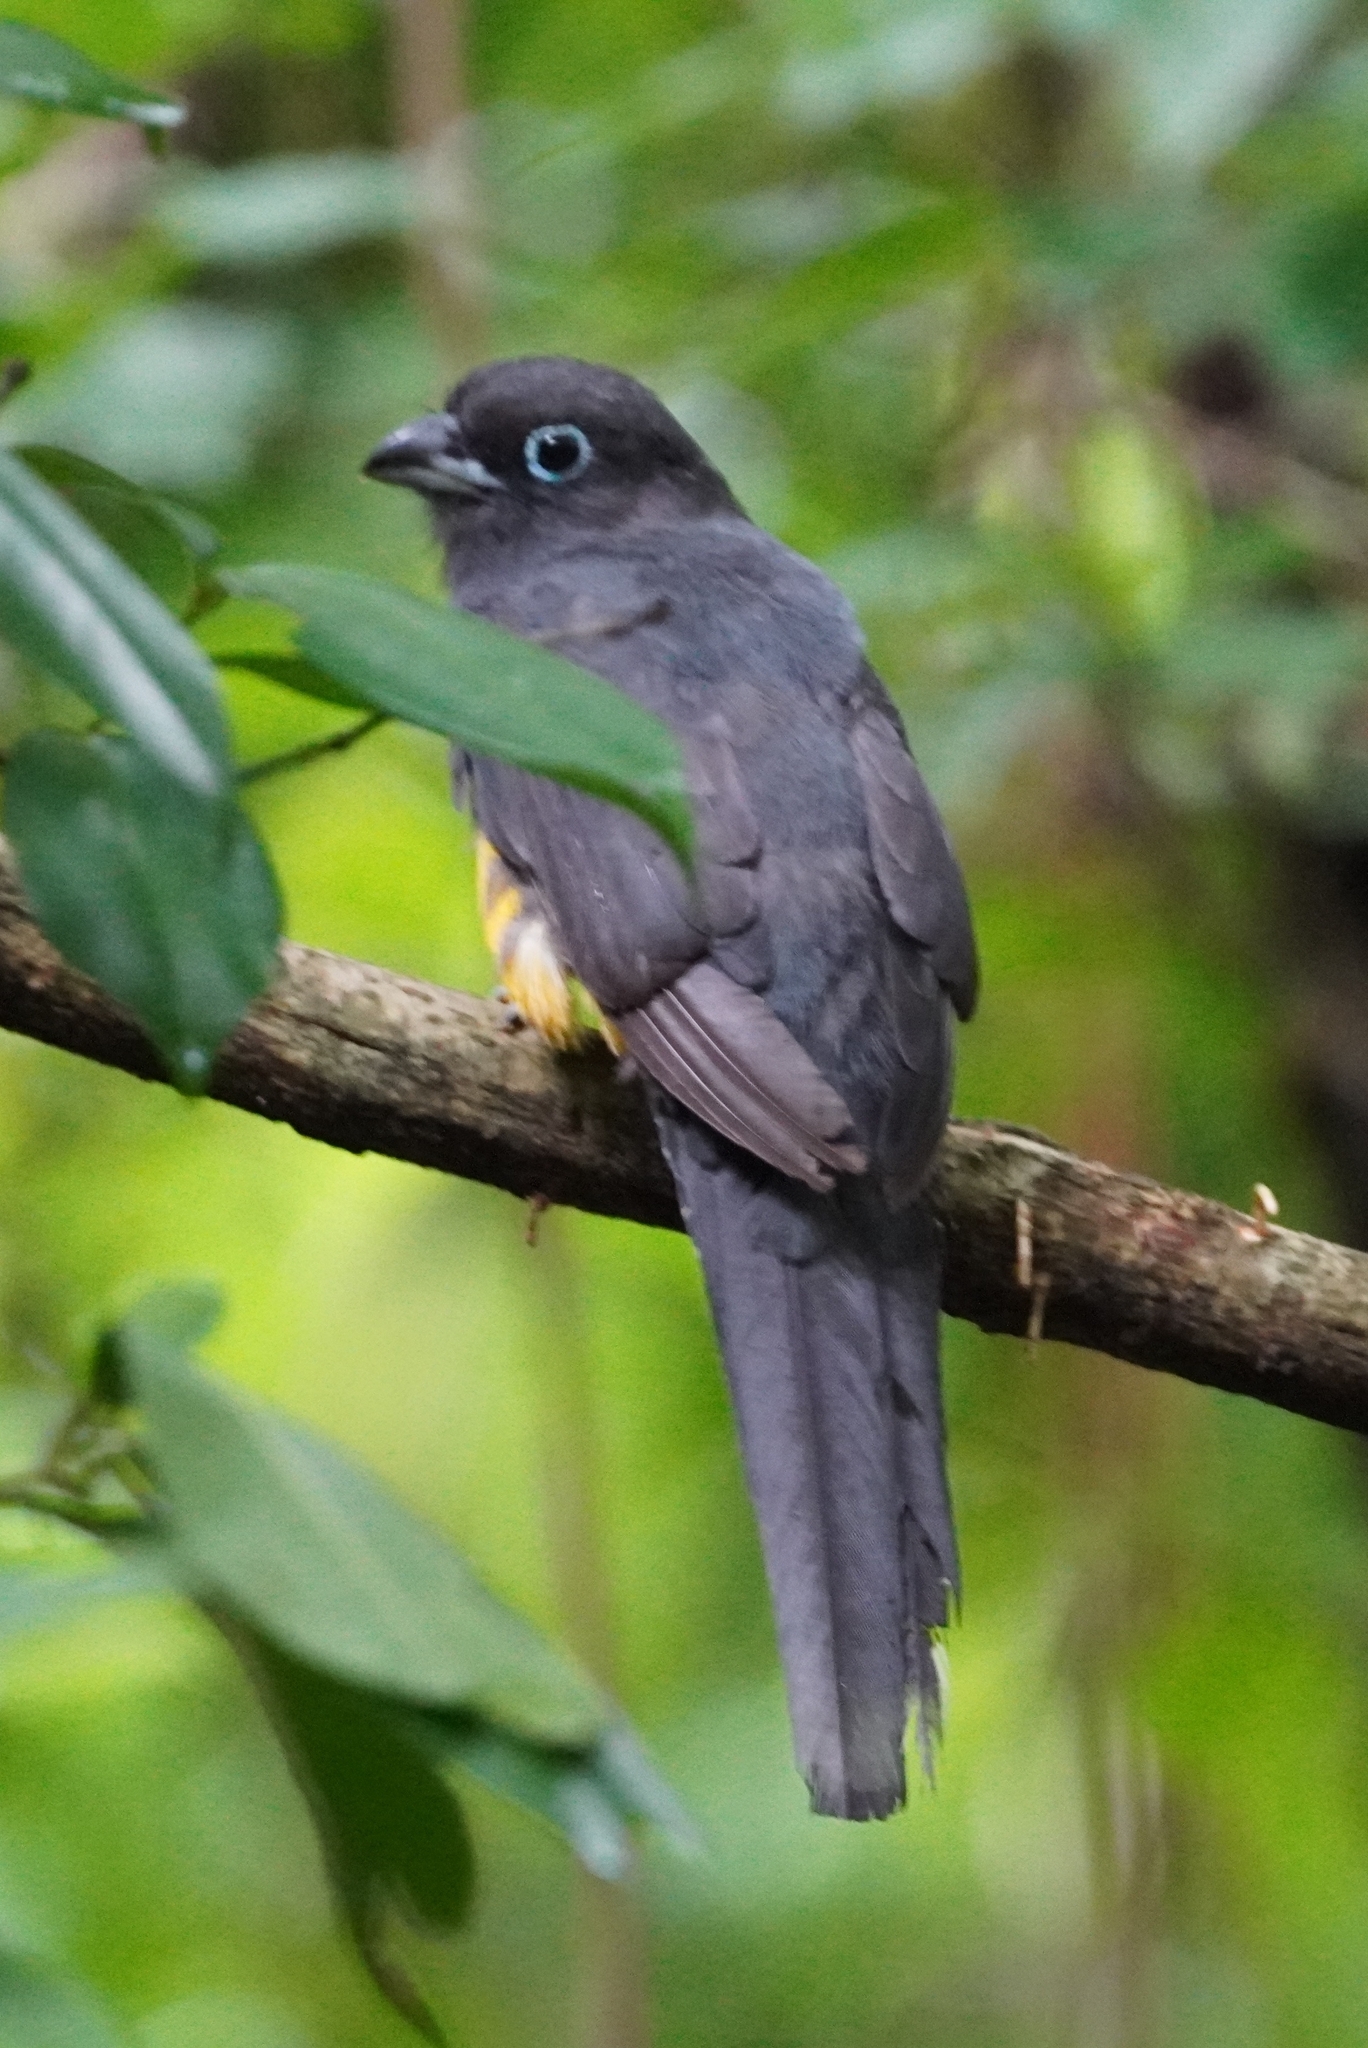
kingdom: Animalia
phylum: Chordata
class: Aves
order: Trogoniformes
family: Trogonidae
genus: Trogon
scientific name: Trogon melanocephalus
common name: Black-headed trogon
